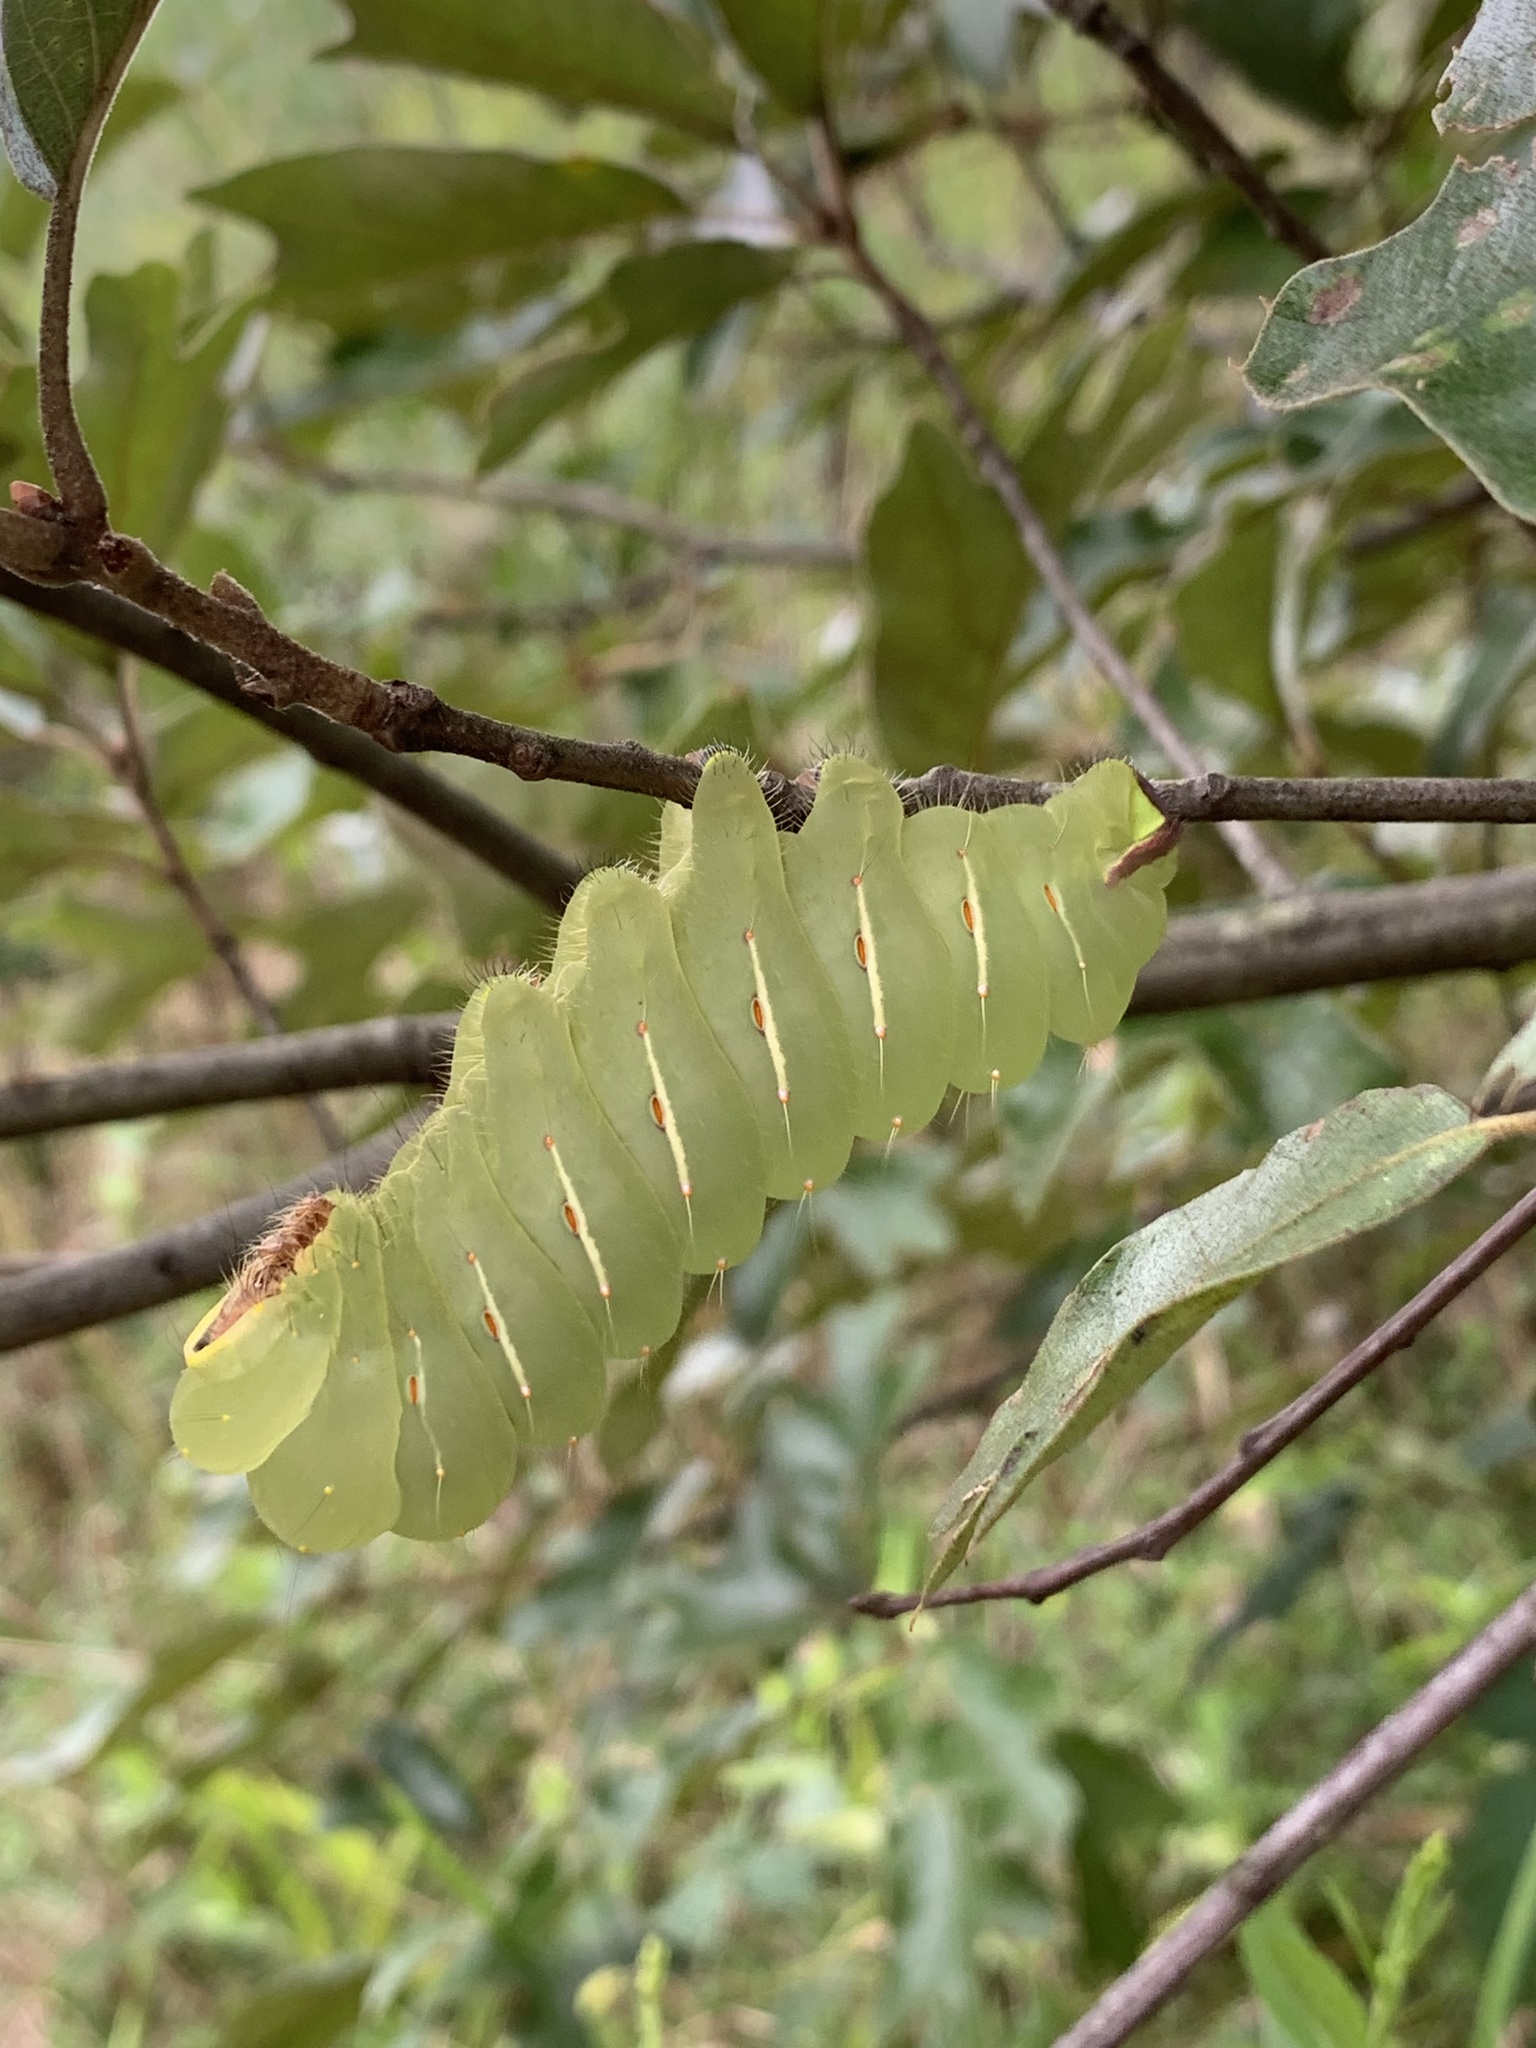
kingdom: Animalia
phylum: Arthropoda
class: Insecta
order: Lepidoptera
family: Saturniidae
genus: Antheraea
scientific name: Antheraea polyphemus
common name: Polyphemus moth
